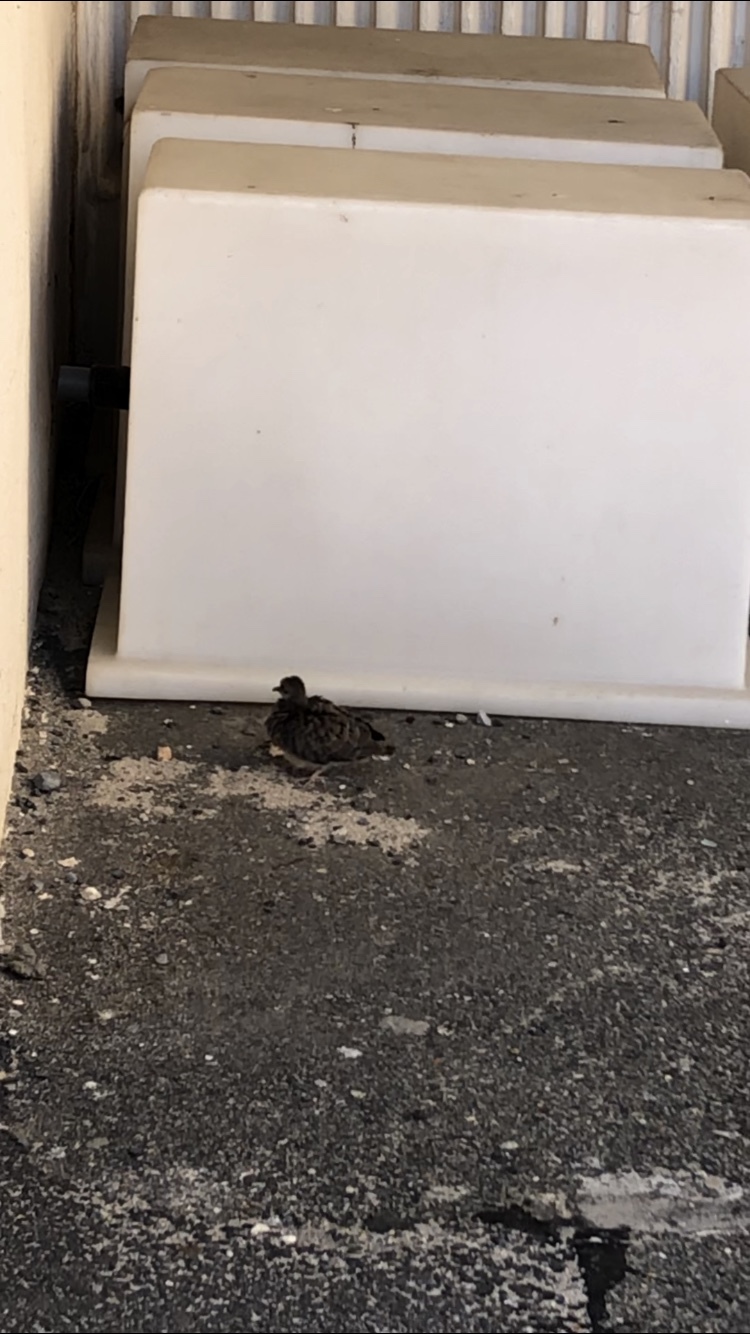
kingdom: Animalia
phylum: Chordata
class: Aves
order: Columbiformes
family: Columbidae
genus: Zenaida
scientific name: Zenaida macroura
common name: Mourning dove
